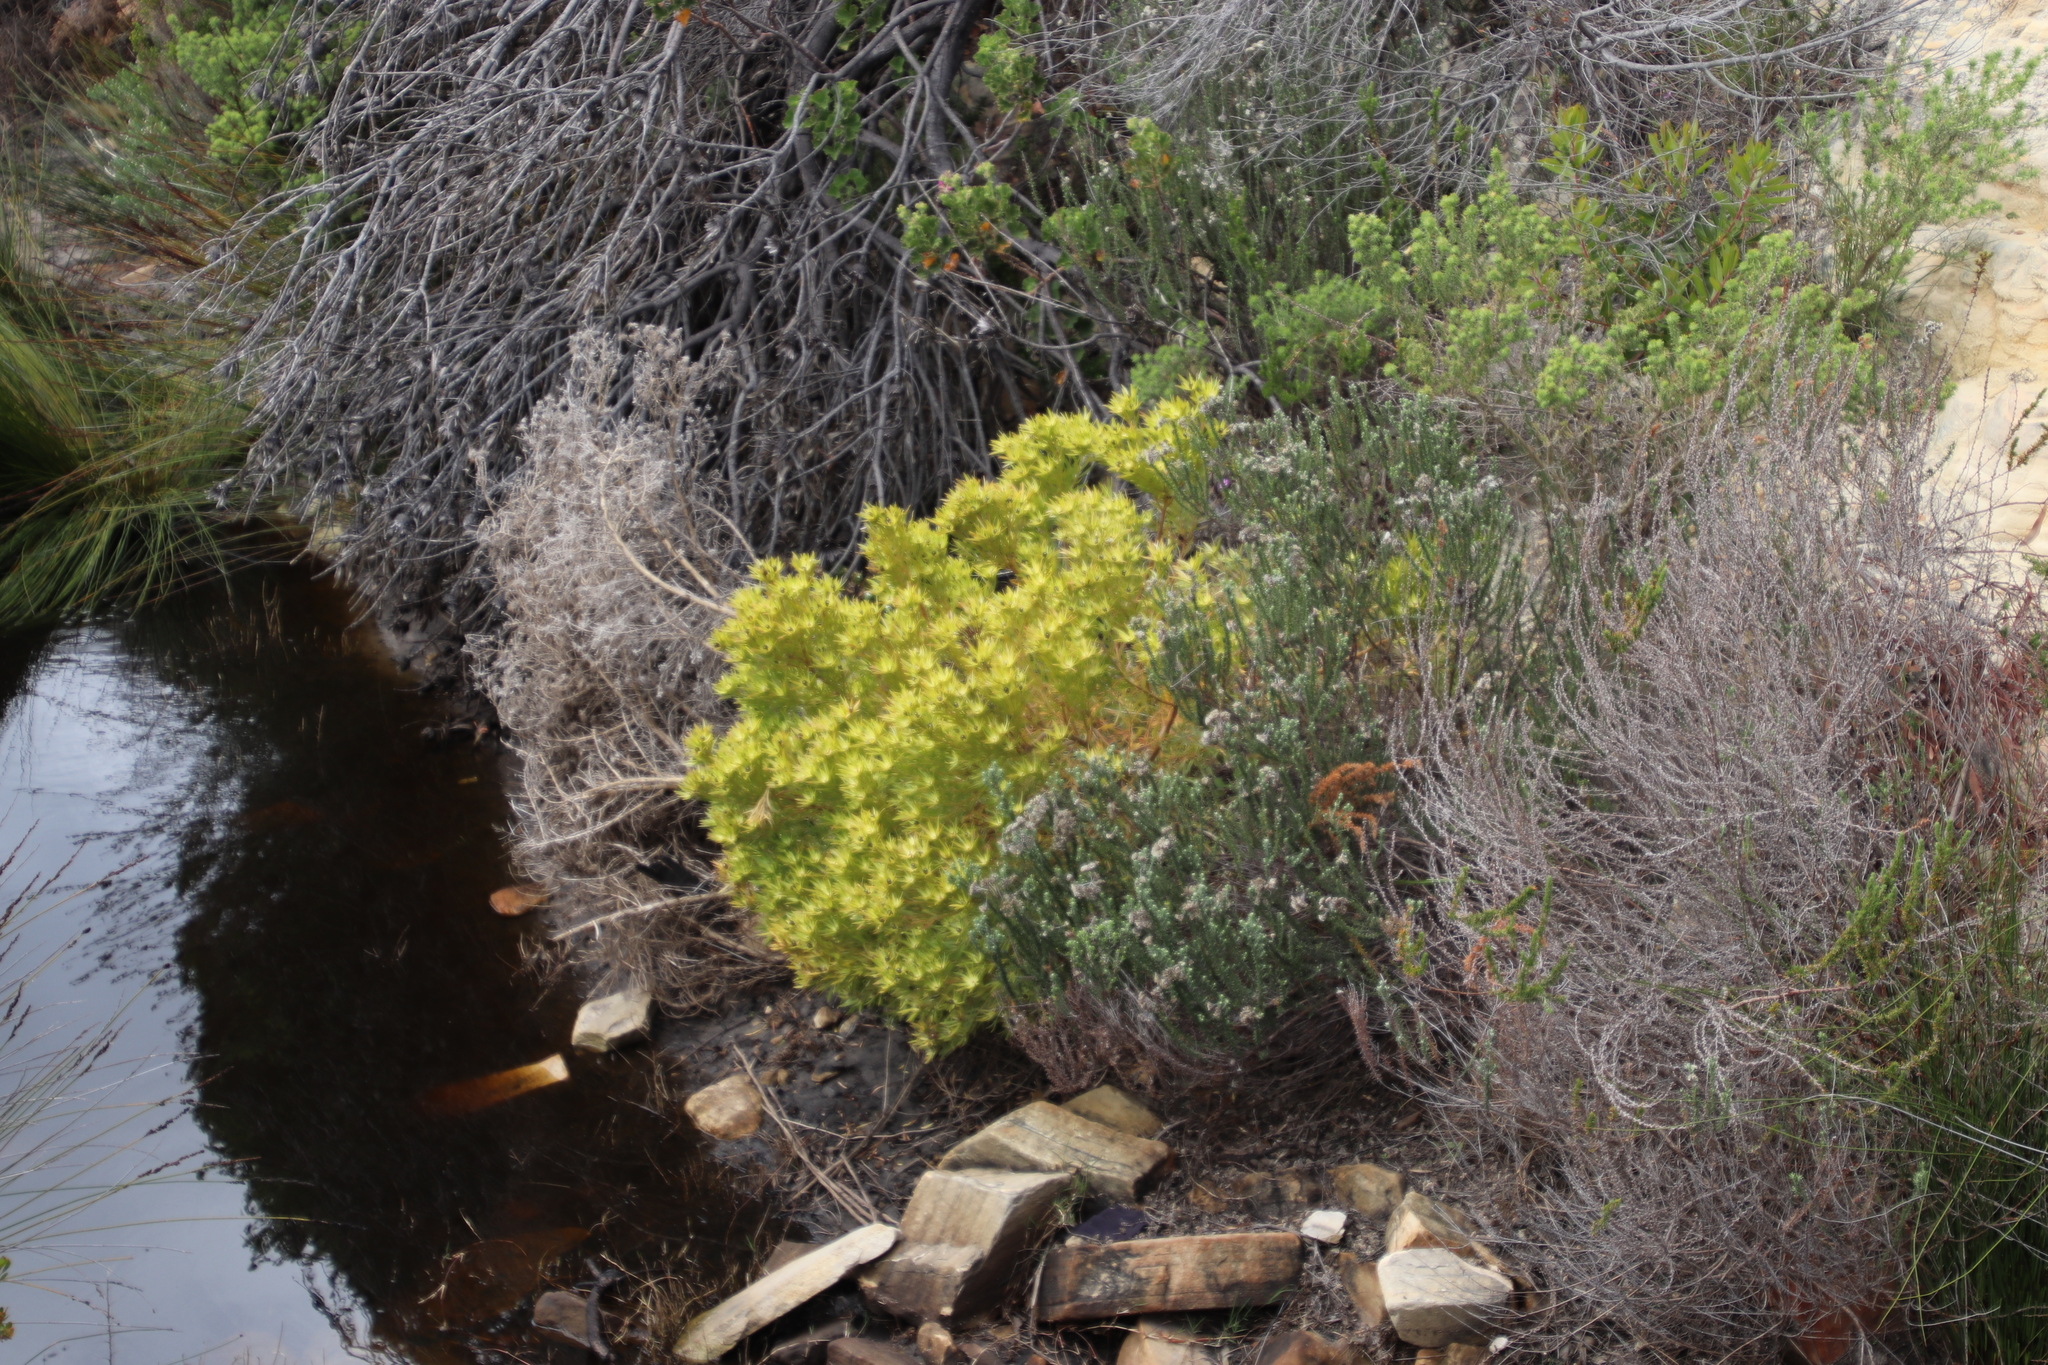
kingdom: Plantae
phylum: Tracheophyta
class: Magnoliopsida
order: Proteales
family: Proteaceae
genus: Leucadendron
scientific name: Leucadendron xanthoconus
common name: Sickle-leaf conebush
